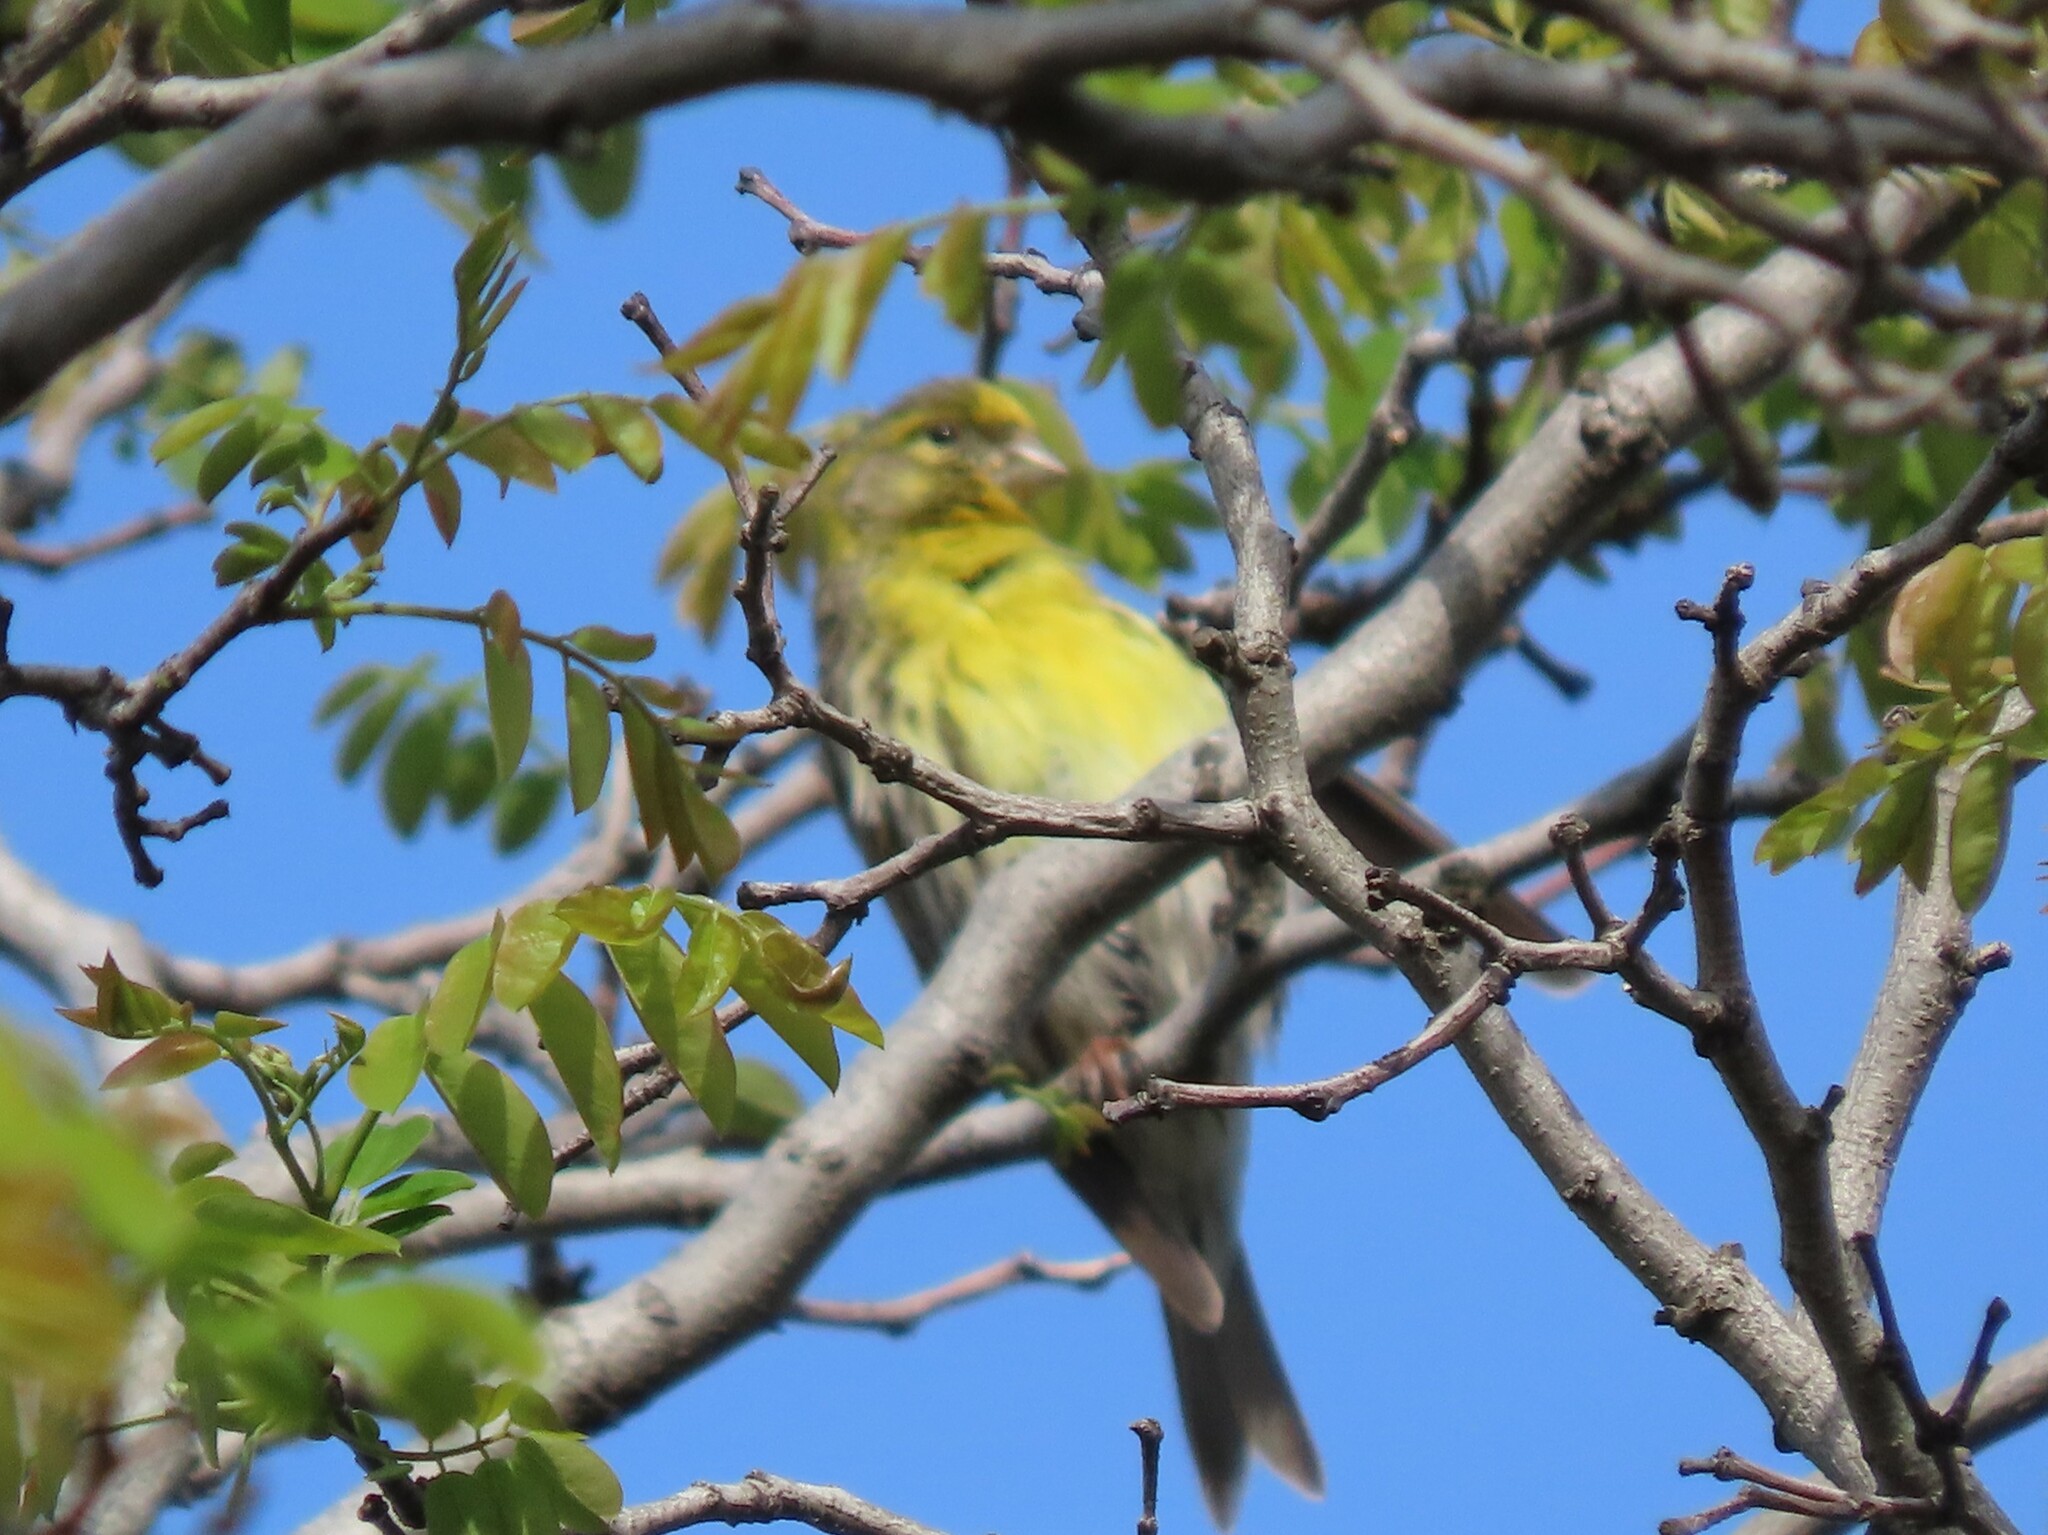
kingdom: Animalia
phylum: Chordata
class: Aves
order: Passeriformes
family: Fringillidae
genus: Serinus
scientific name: Serinus serinus
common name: European serin
